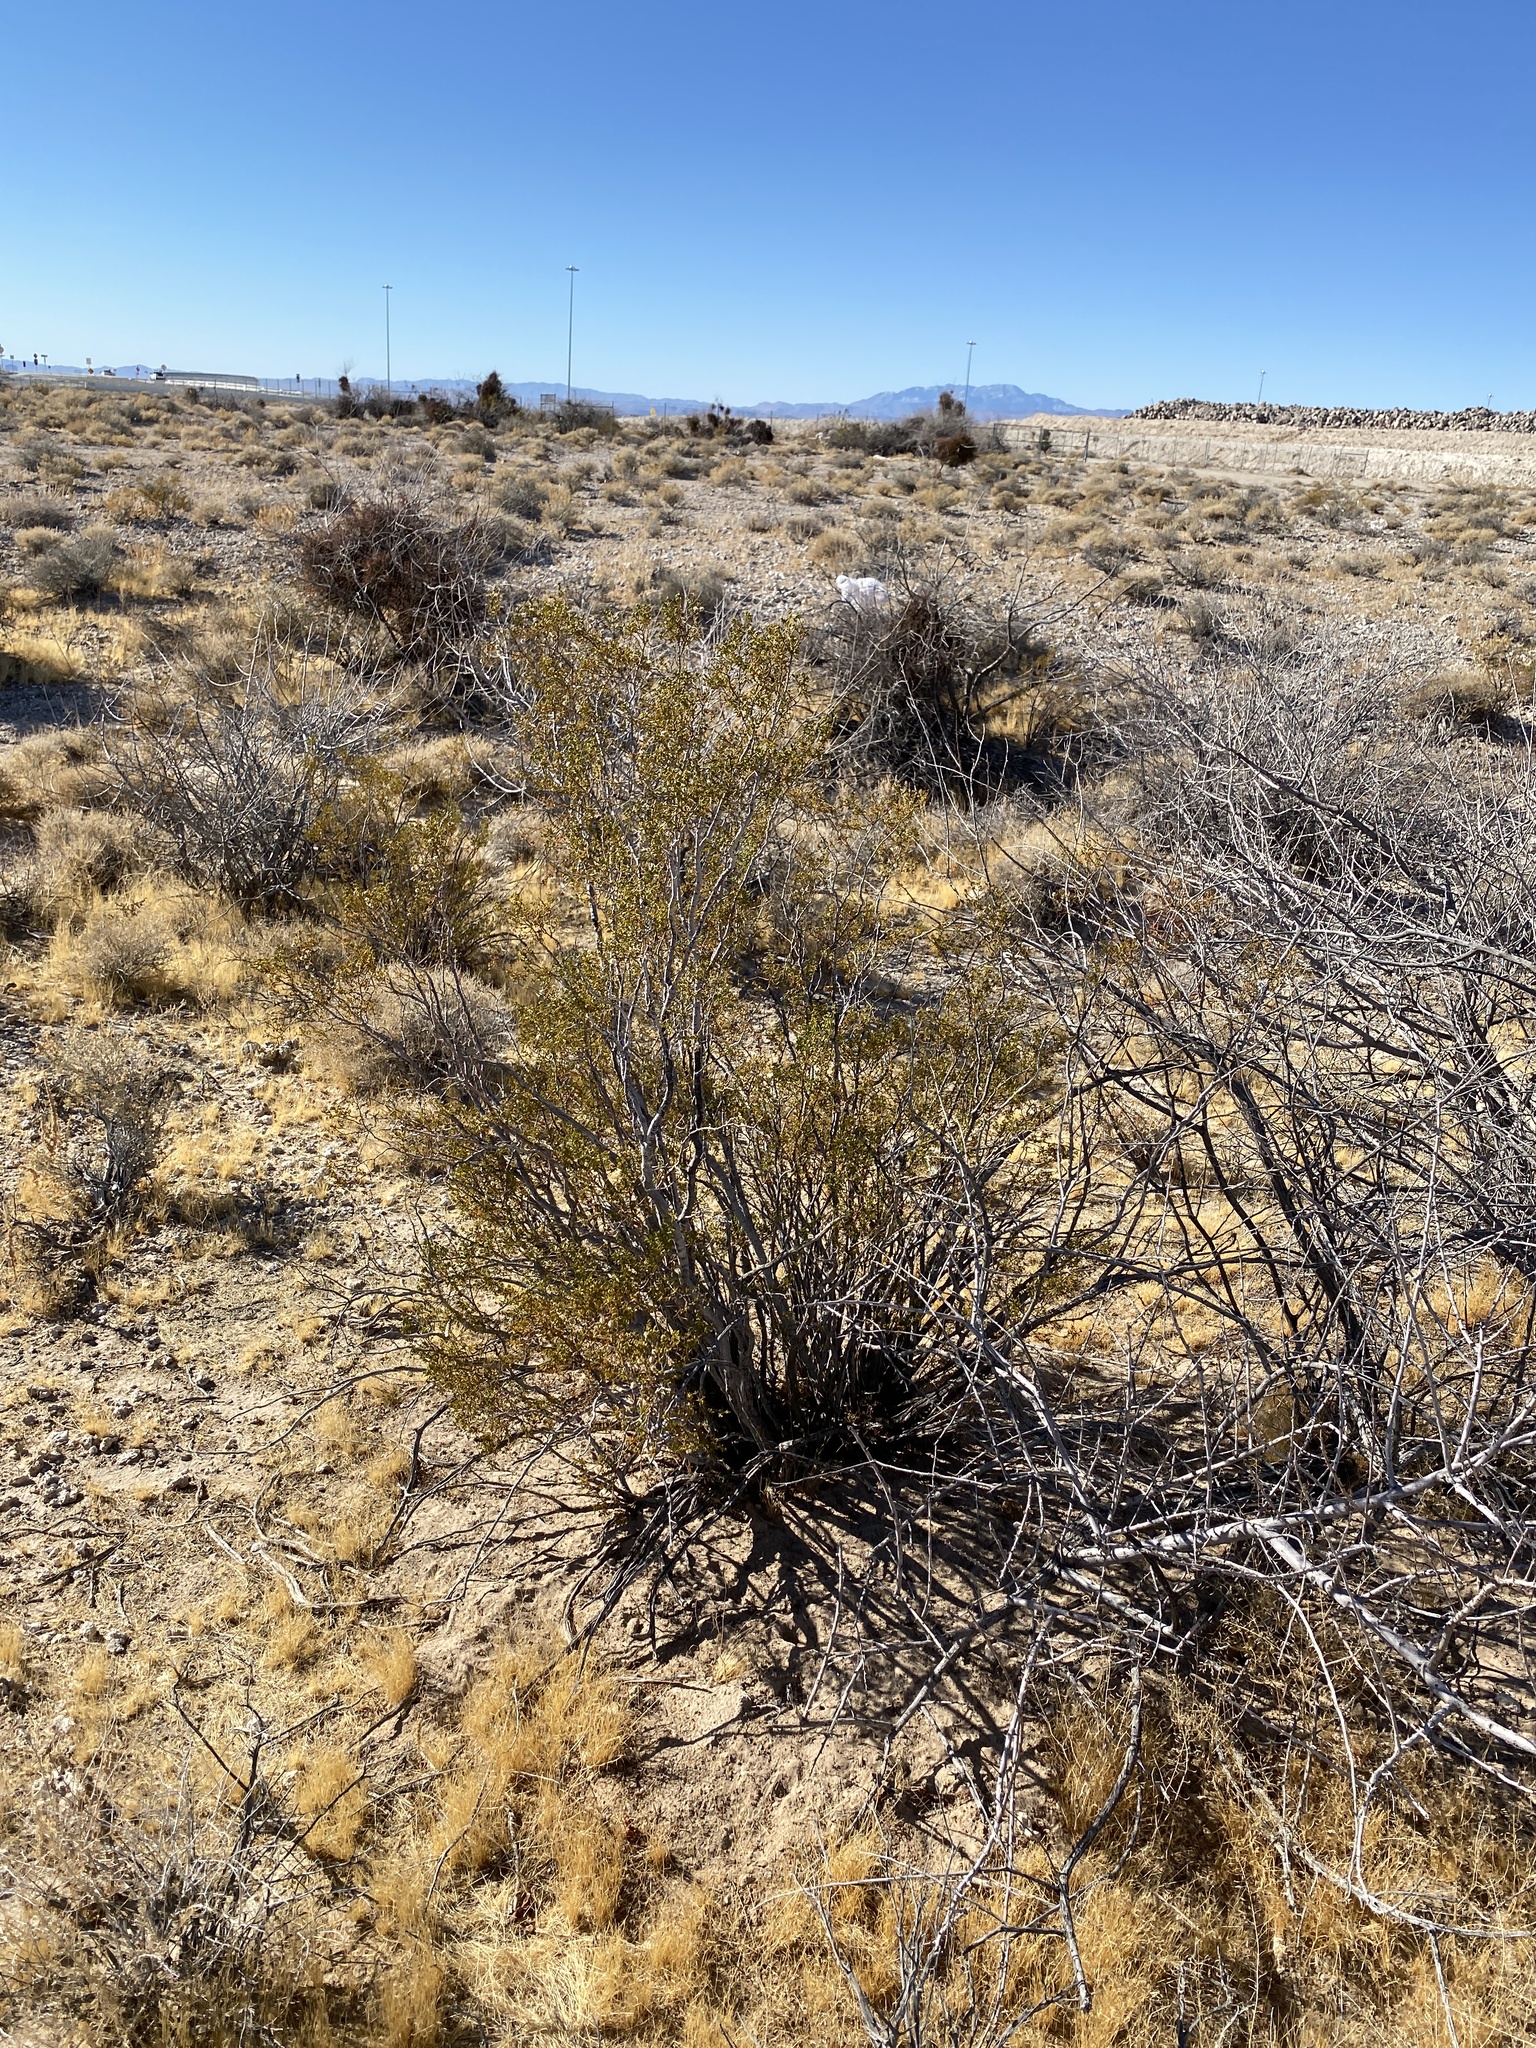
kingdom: Plantae
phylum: Tracheophyta
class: Magnoliopsida
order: Zygophyllales
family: Zygophyllaceae
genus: Larrea
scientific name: Larrea tridentata
